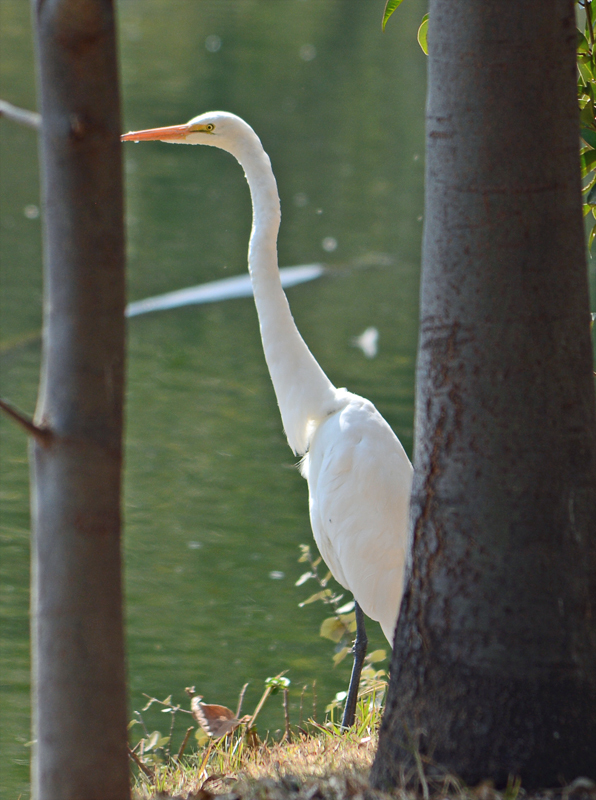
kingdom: Animalia
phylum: Chordata
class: Aves
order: Pelecaniformes
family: Ardeidae
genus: Ardea
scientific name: Ardea alba
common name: Great egret
